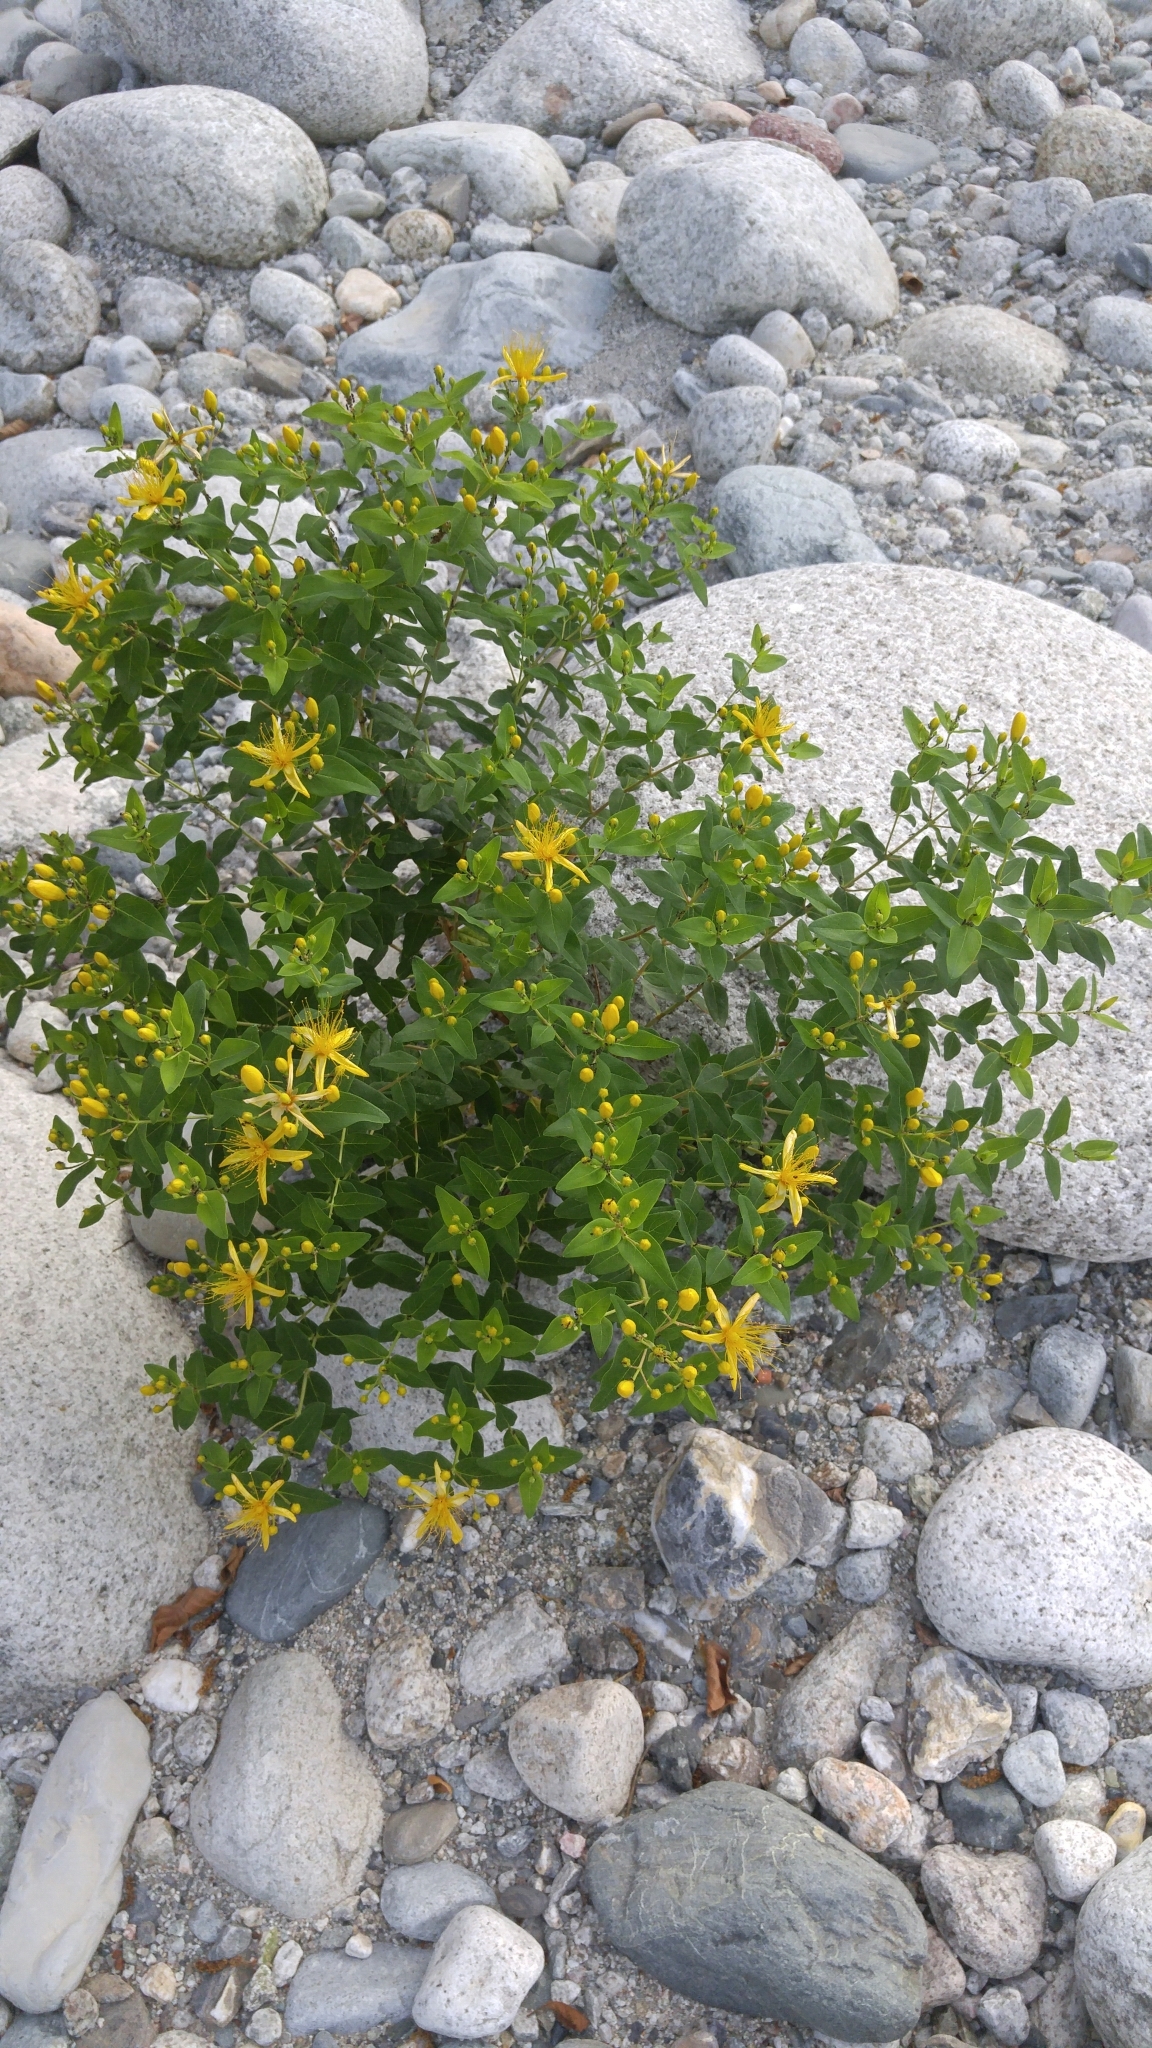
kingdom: Plantae
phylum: Tracheophyta
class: Magnoliopsida
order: Malpighiales
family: Hypericaceae
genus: Hypericum
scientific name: Hypericum hircinum
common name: Stinking tutsan
